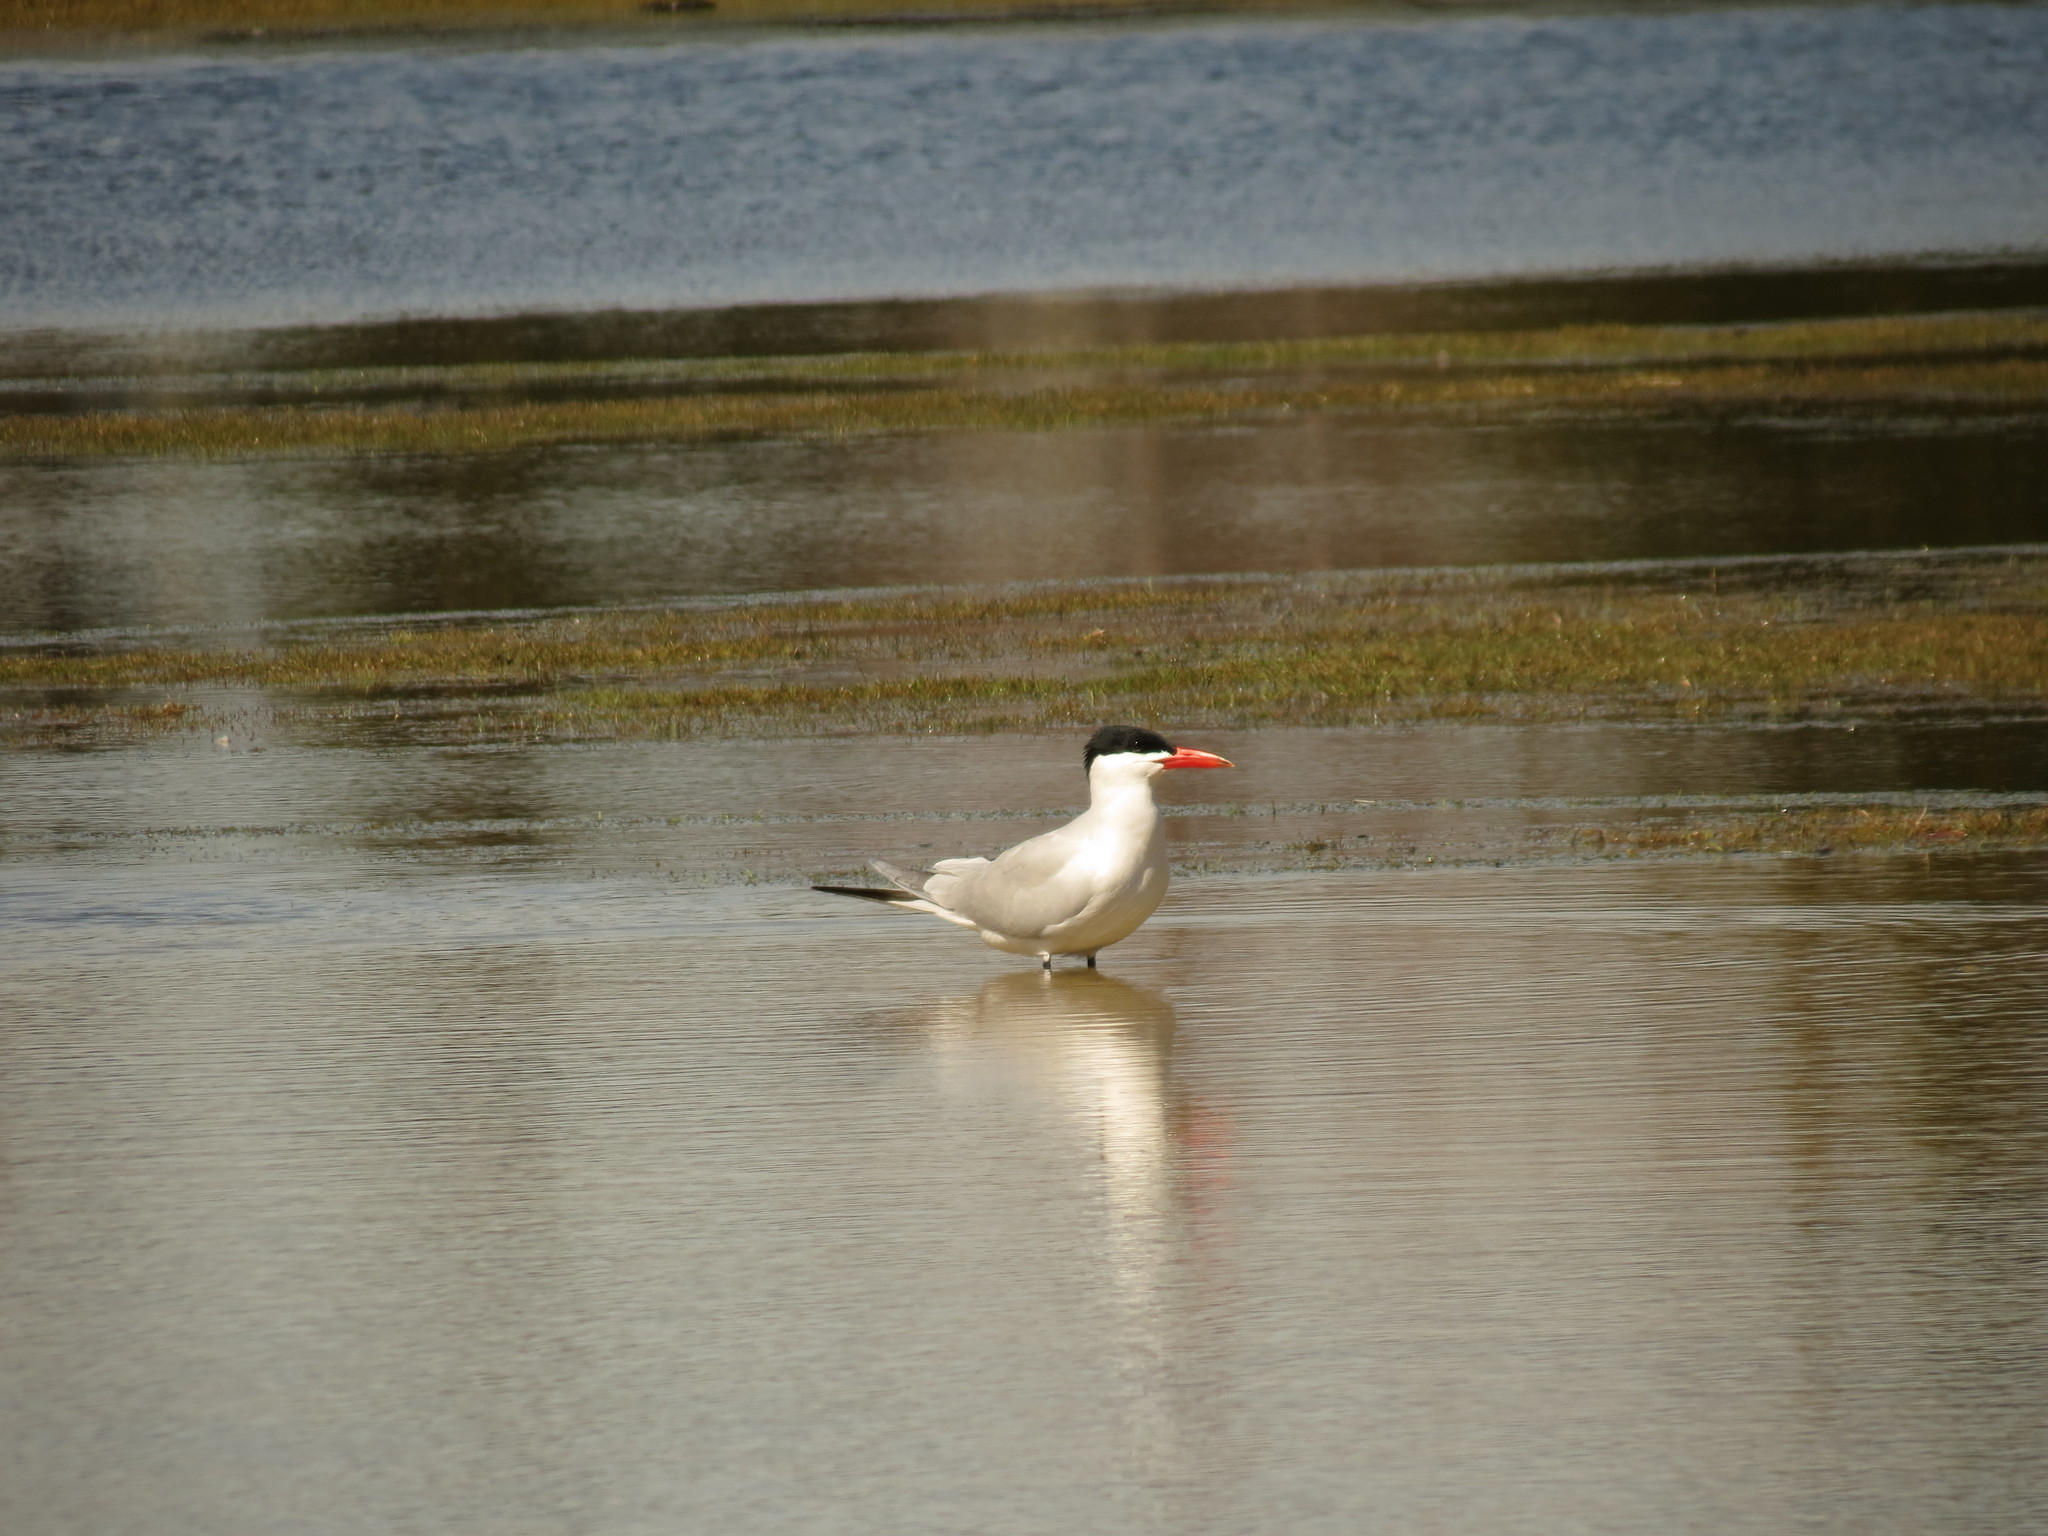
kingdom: Animalia
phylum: Chordata
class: Aves
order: Charadriiformes
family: Laridae
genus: Hydroprogne
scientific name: Hydroprogne caspia
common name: Caspian tern
